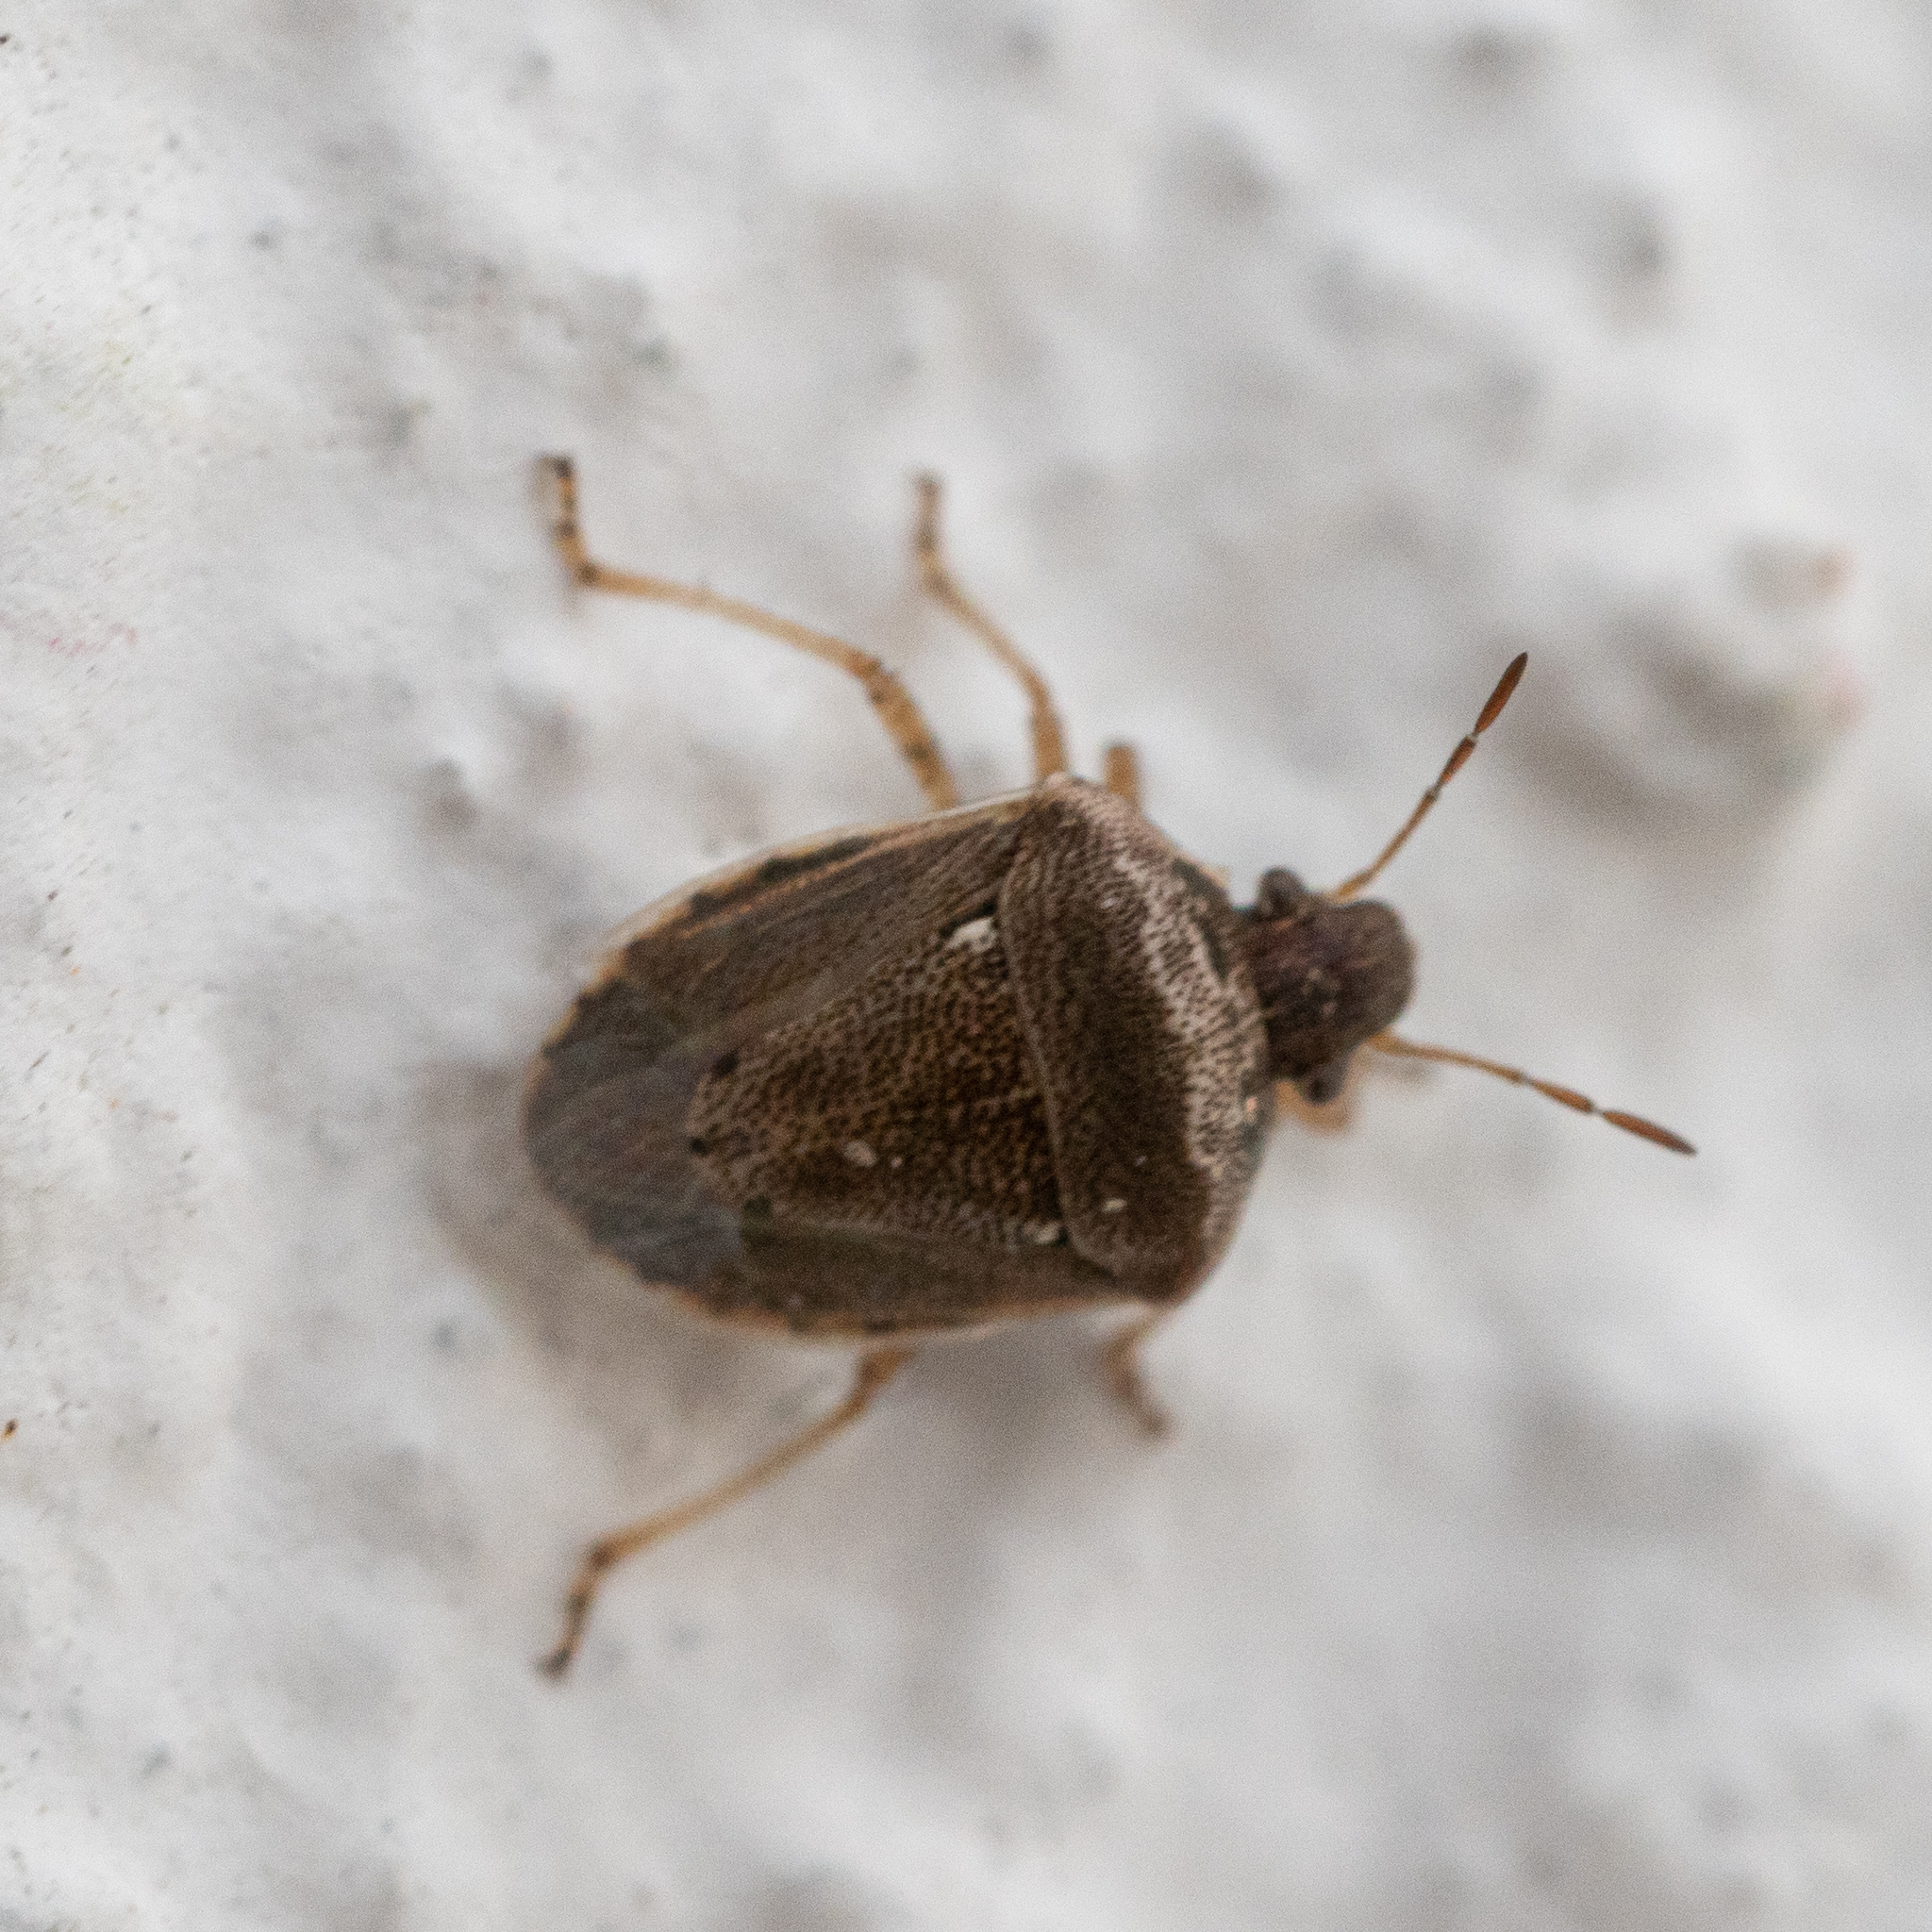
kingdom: Animalia
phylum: Arthropoda
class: Insecta
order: Hemiptera
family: Pentatomidae
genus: Eysarcoris
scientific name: Eysarcoris ventralis
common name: White-spotted stink bug
